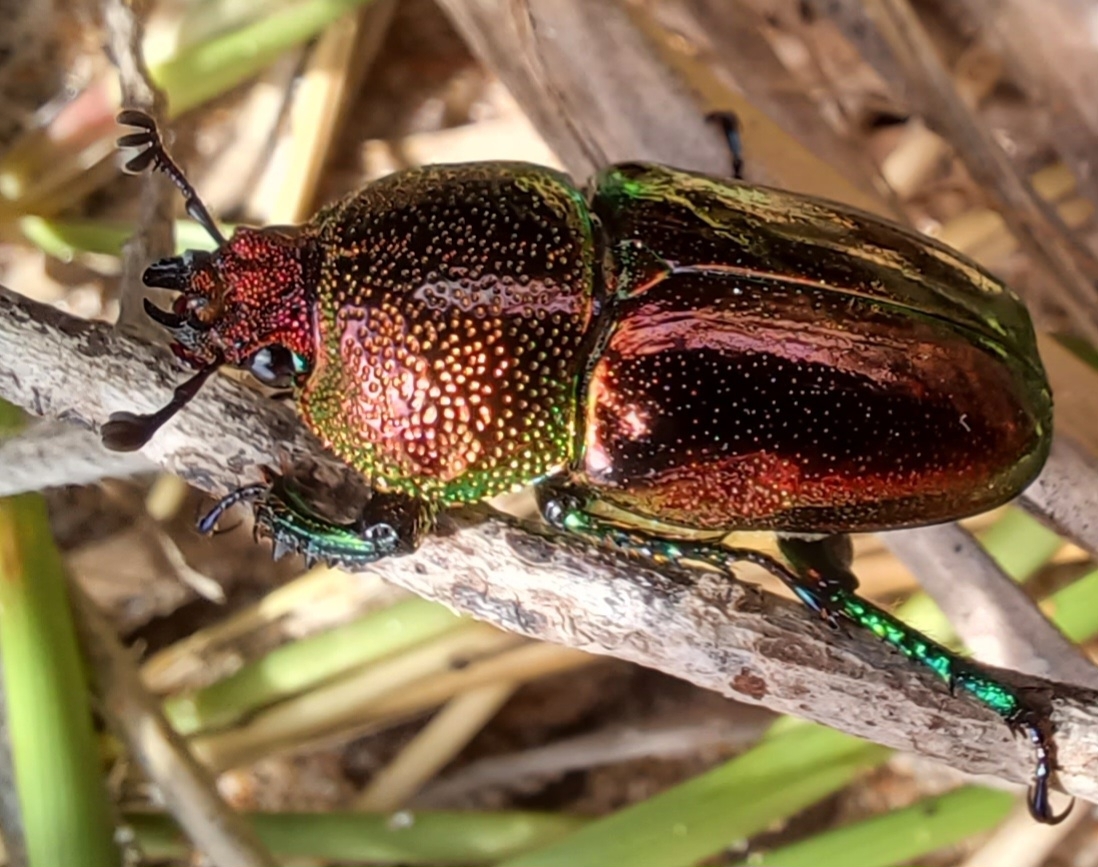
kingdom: Animalia
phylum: Arthropoda
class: Insecta
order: Coleoptera
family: Lucanidae
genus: Lamprima
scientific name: Lamprima aurata
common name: Golden stag beetle
